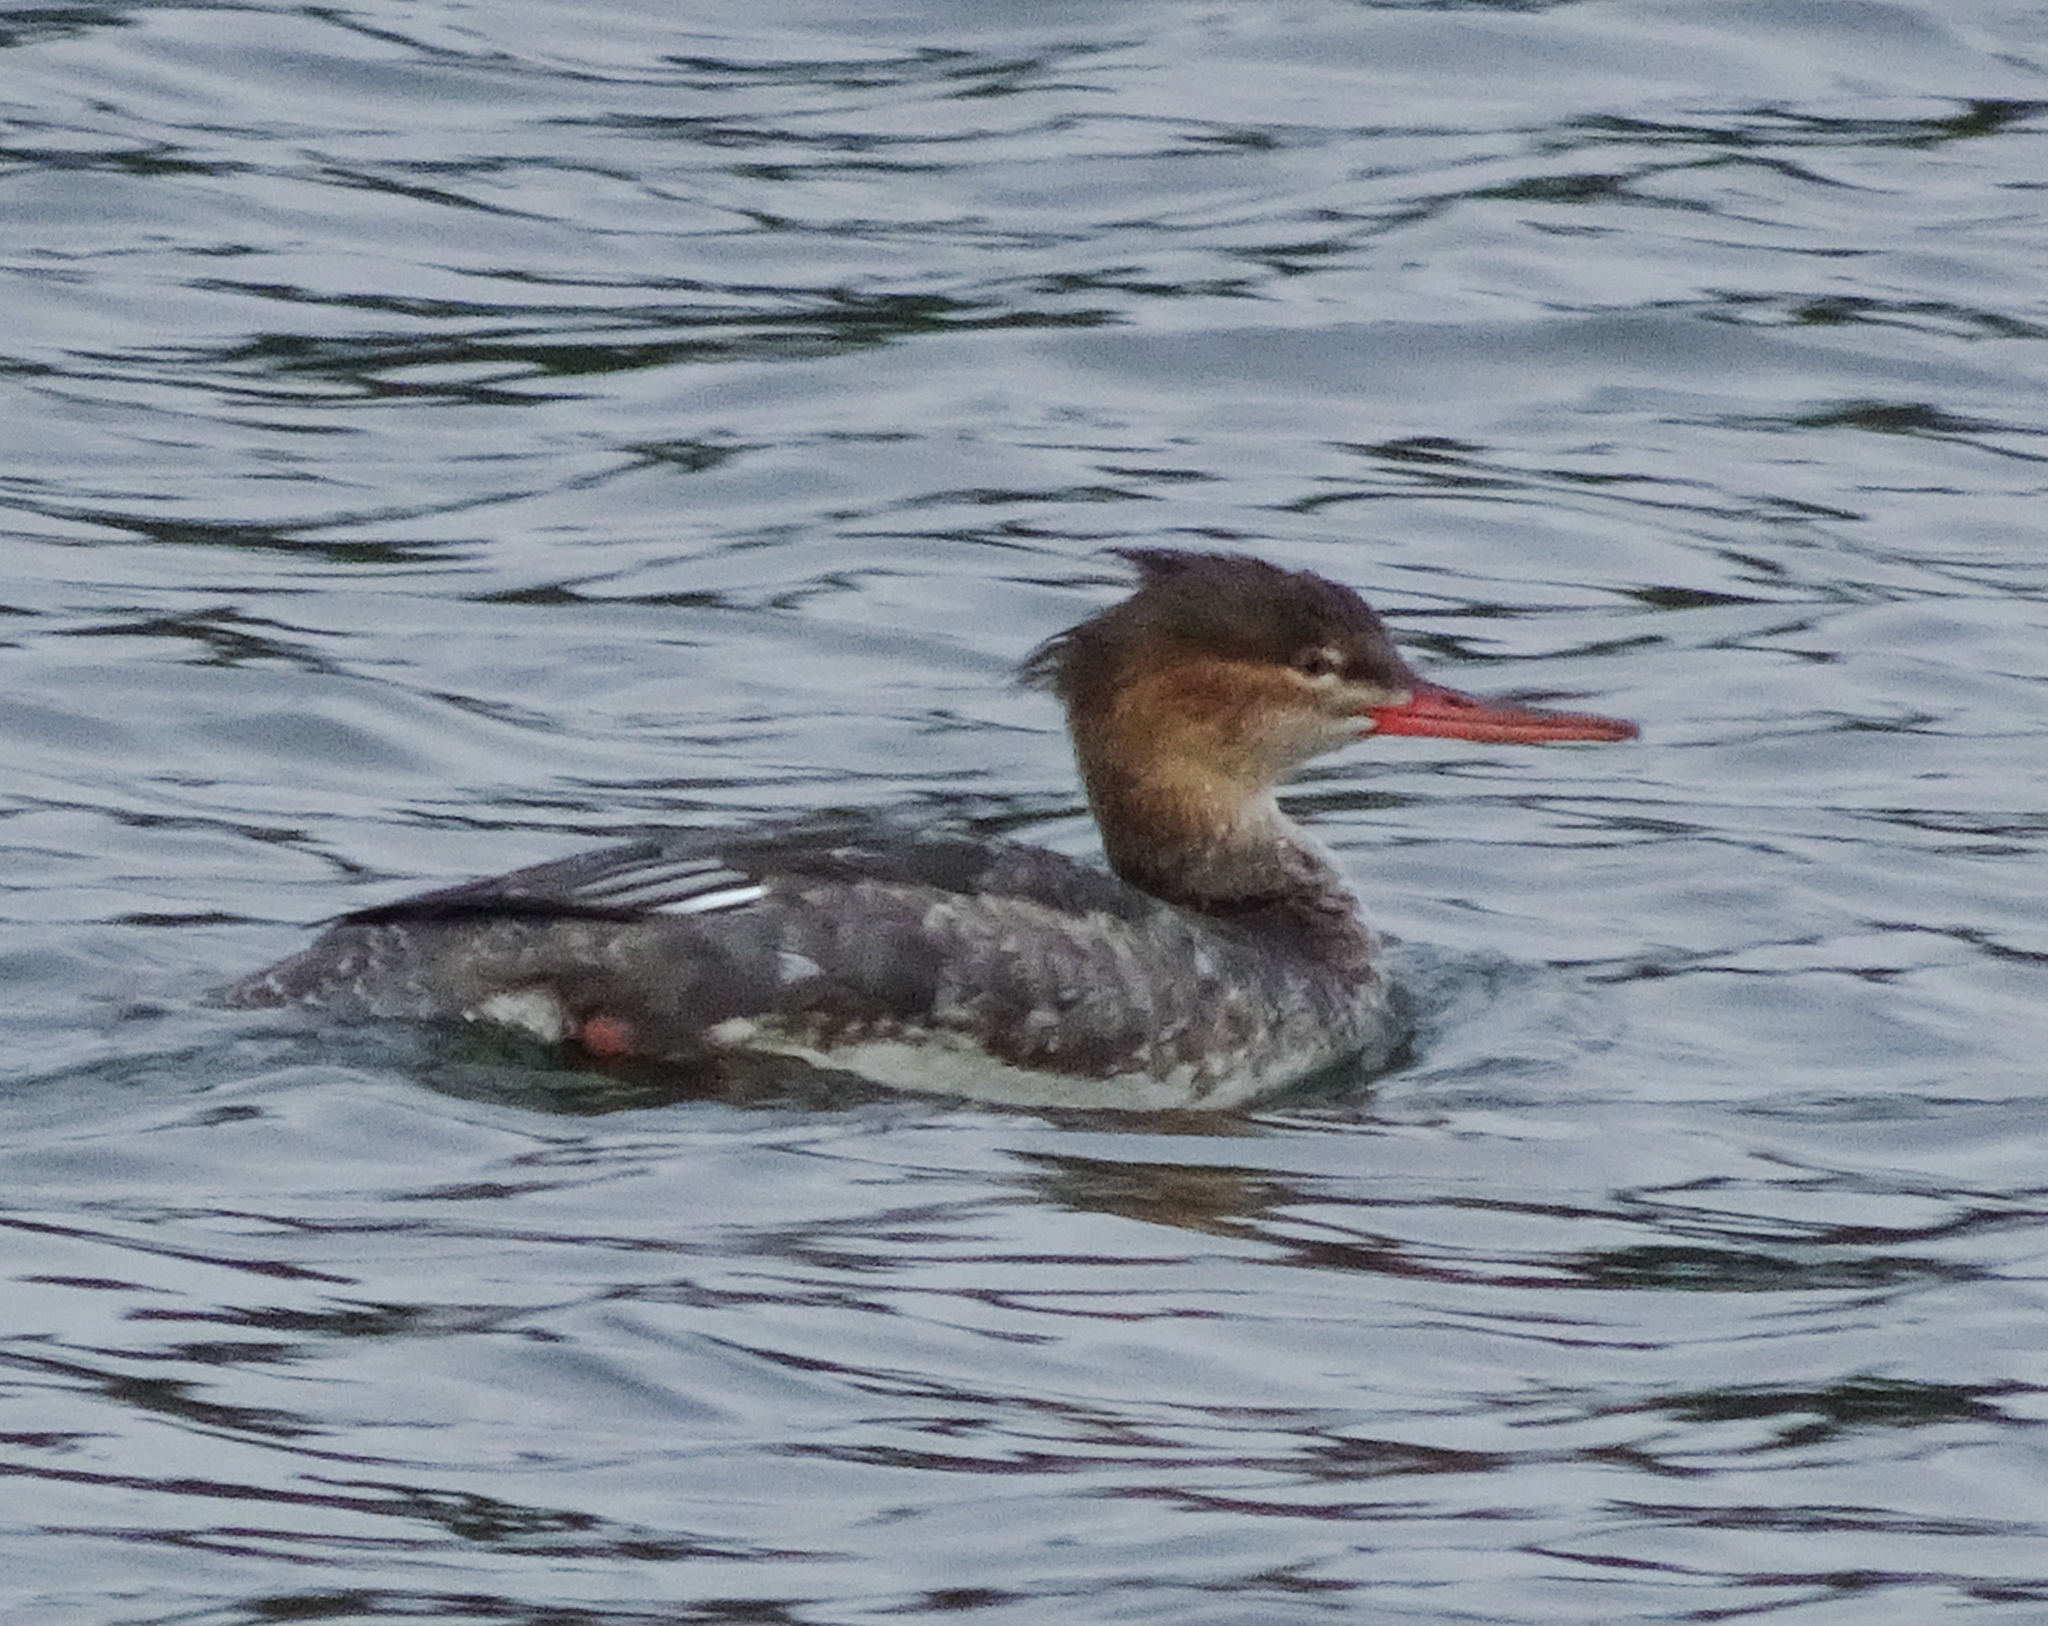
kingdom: Animalia
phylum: Chordata
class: Aves
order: Anseriformes
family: Anatidae
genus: Mergus
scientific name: Mergus serrator
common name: Red-breasted merganser
